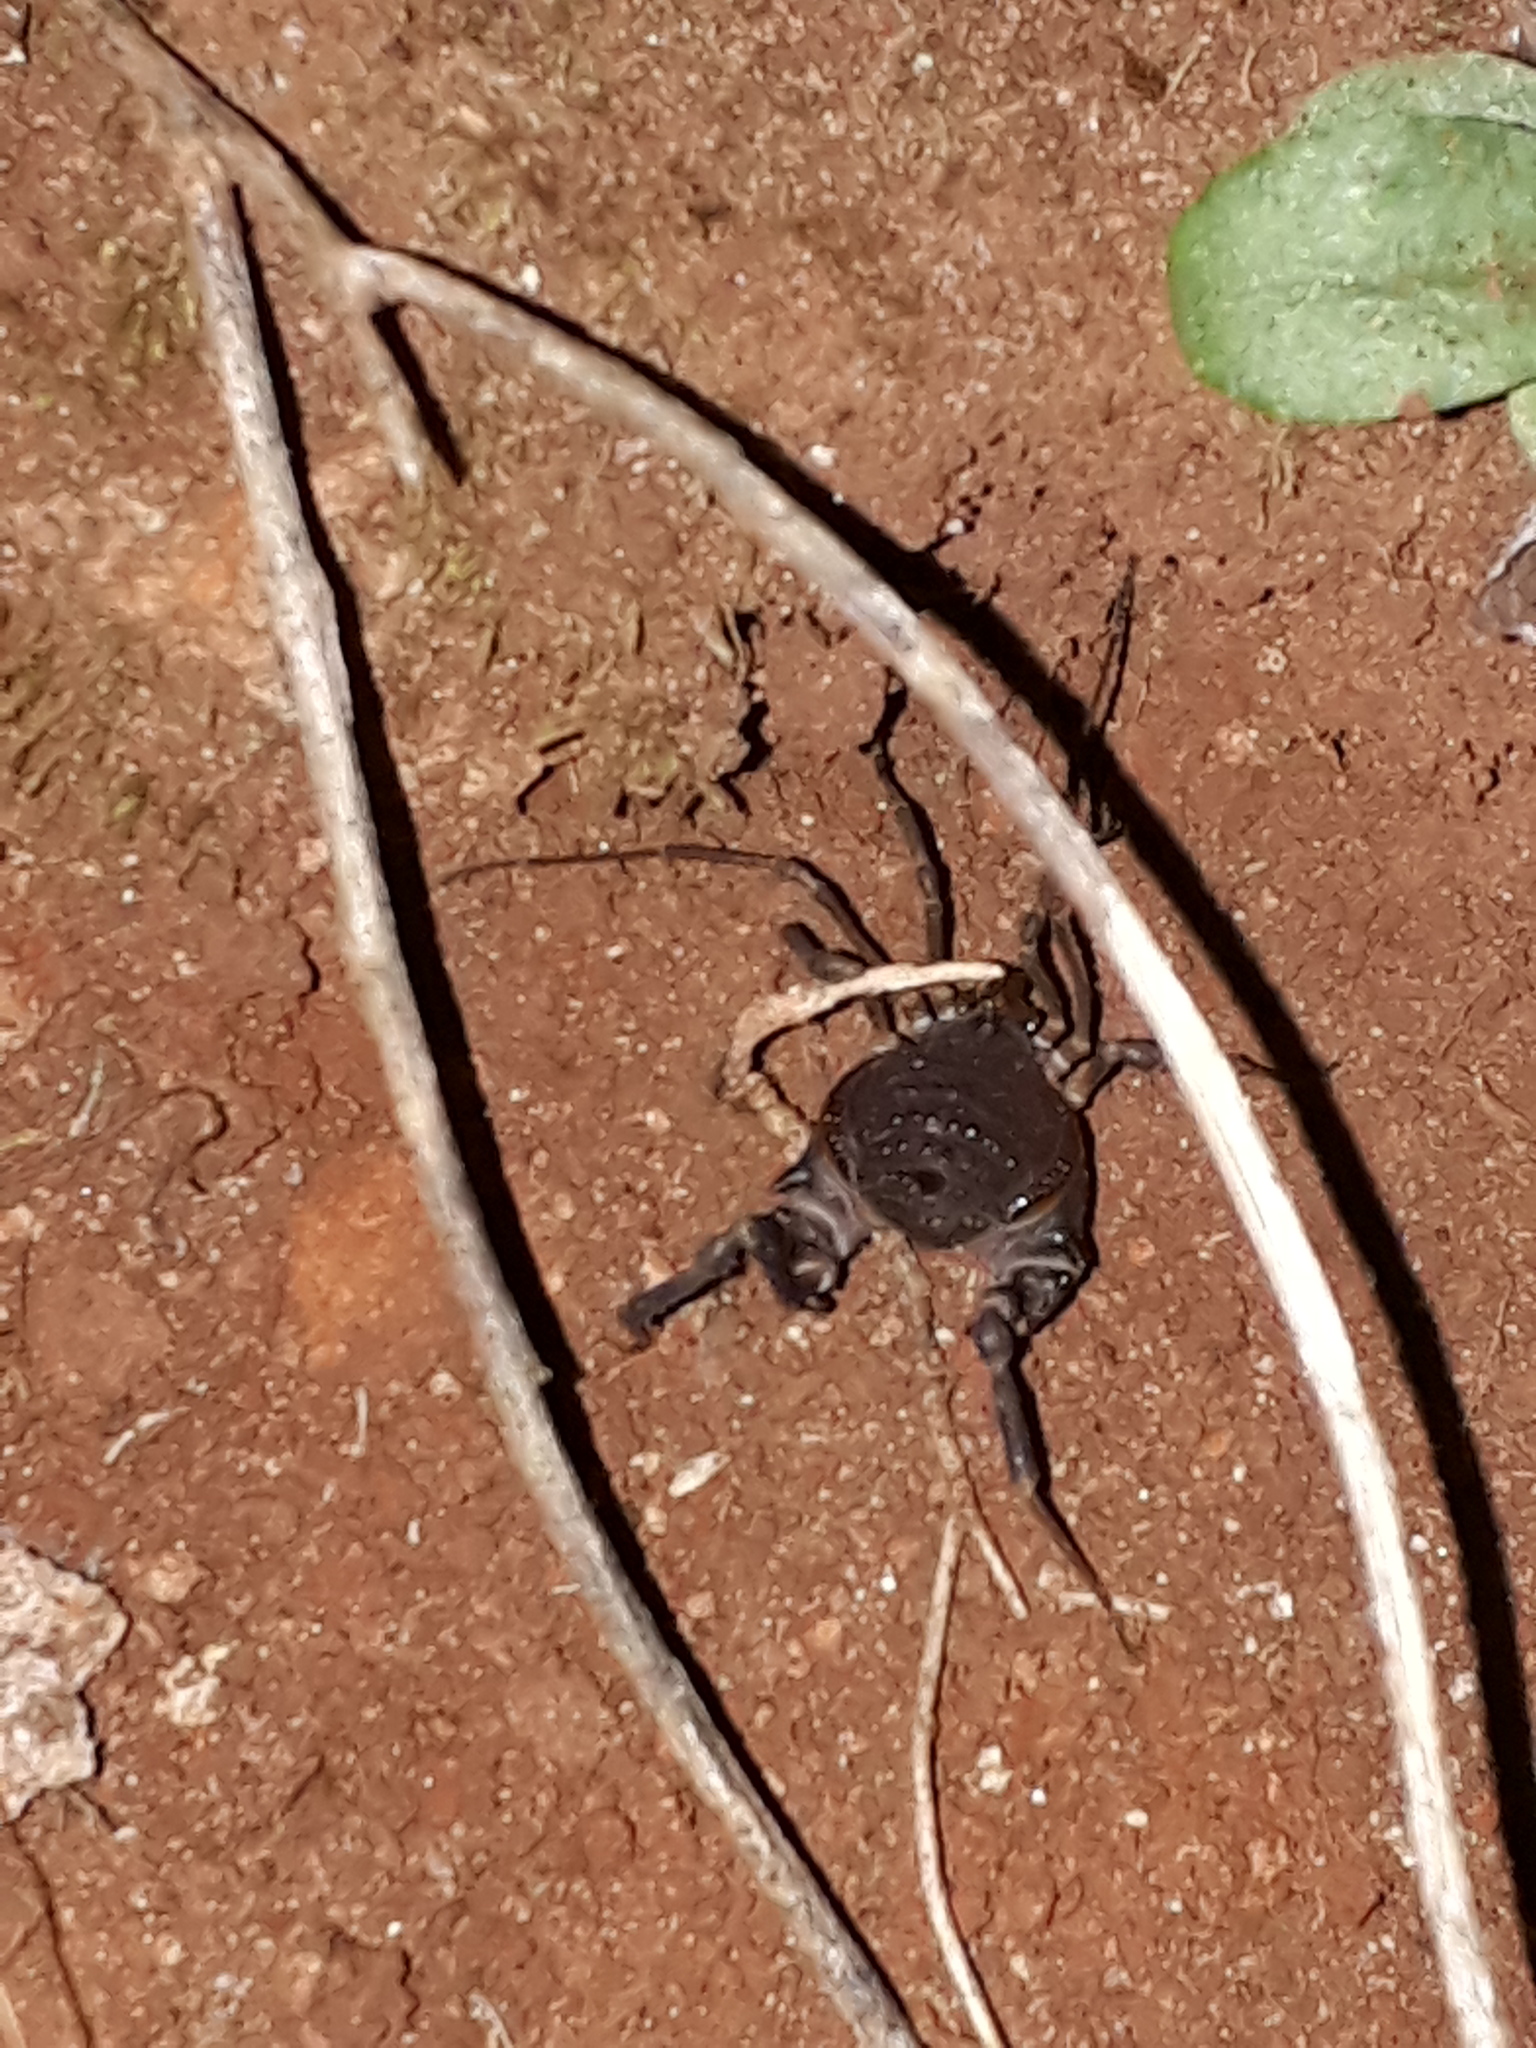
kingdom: Animalia
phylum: Arthropoda
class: Arachnida
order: Opiliones
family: Gonyleptidae
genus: Acanthopachylus
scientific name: Acanthopachylus robustus
